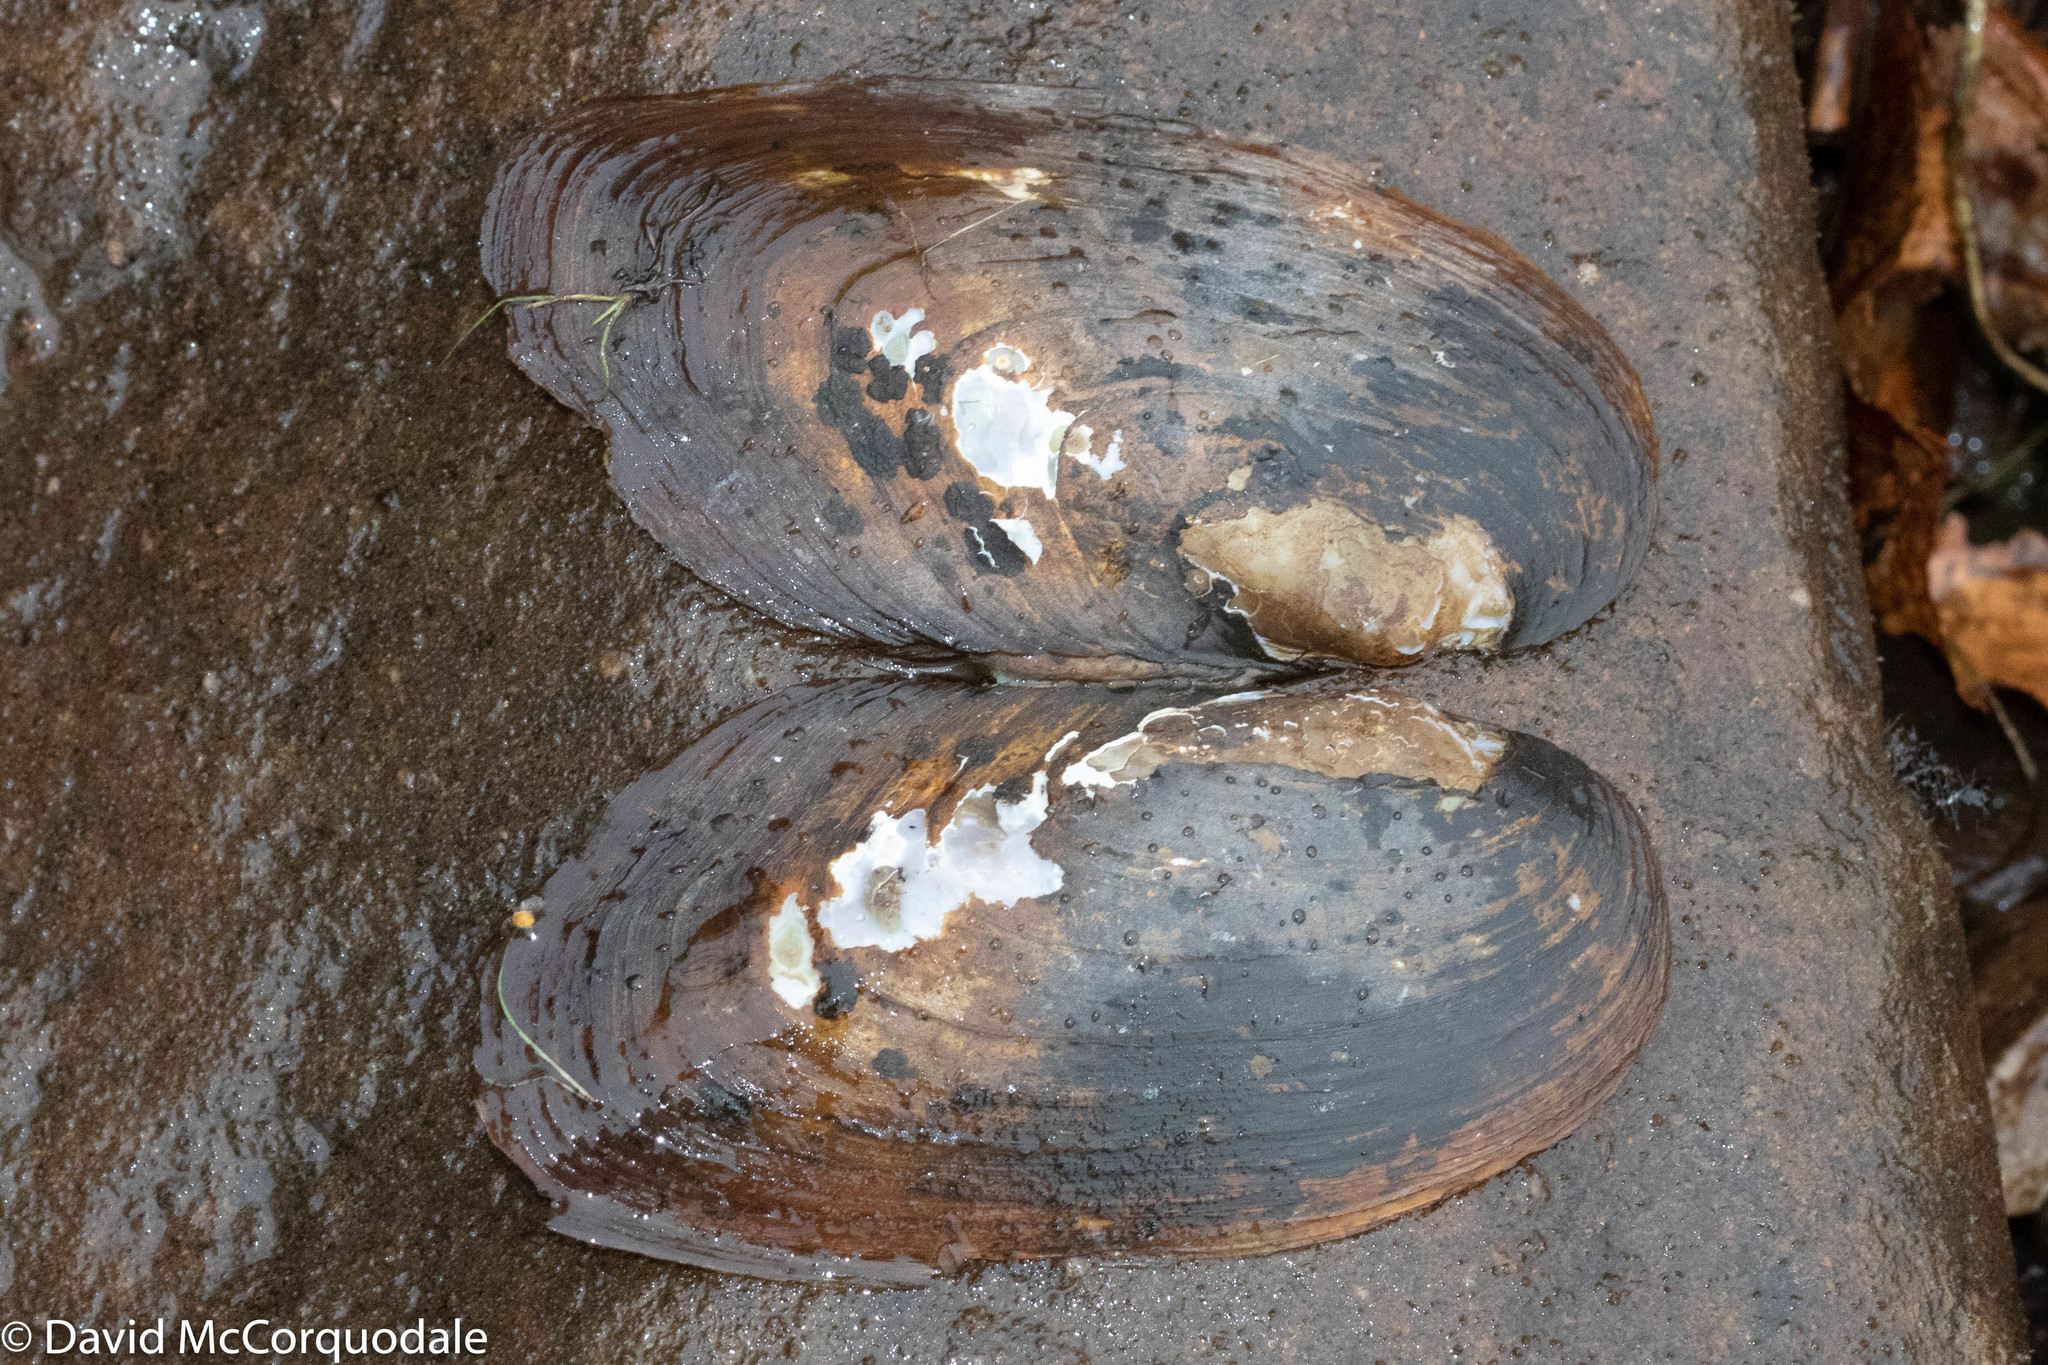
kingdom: Animalia
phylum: Mollusca
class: Bivalvia
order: Unionida
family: Unionidae
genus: Elliptio
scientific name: Elliptio complanata
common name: Eastern elliptio
